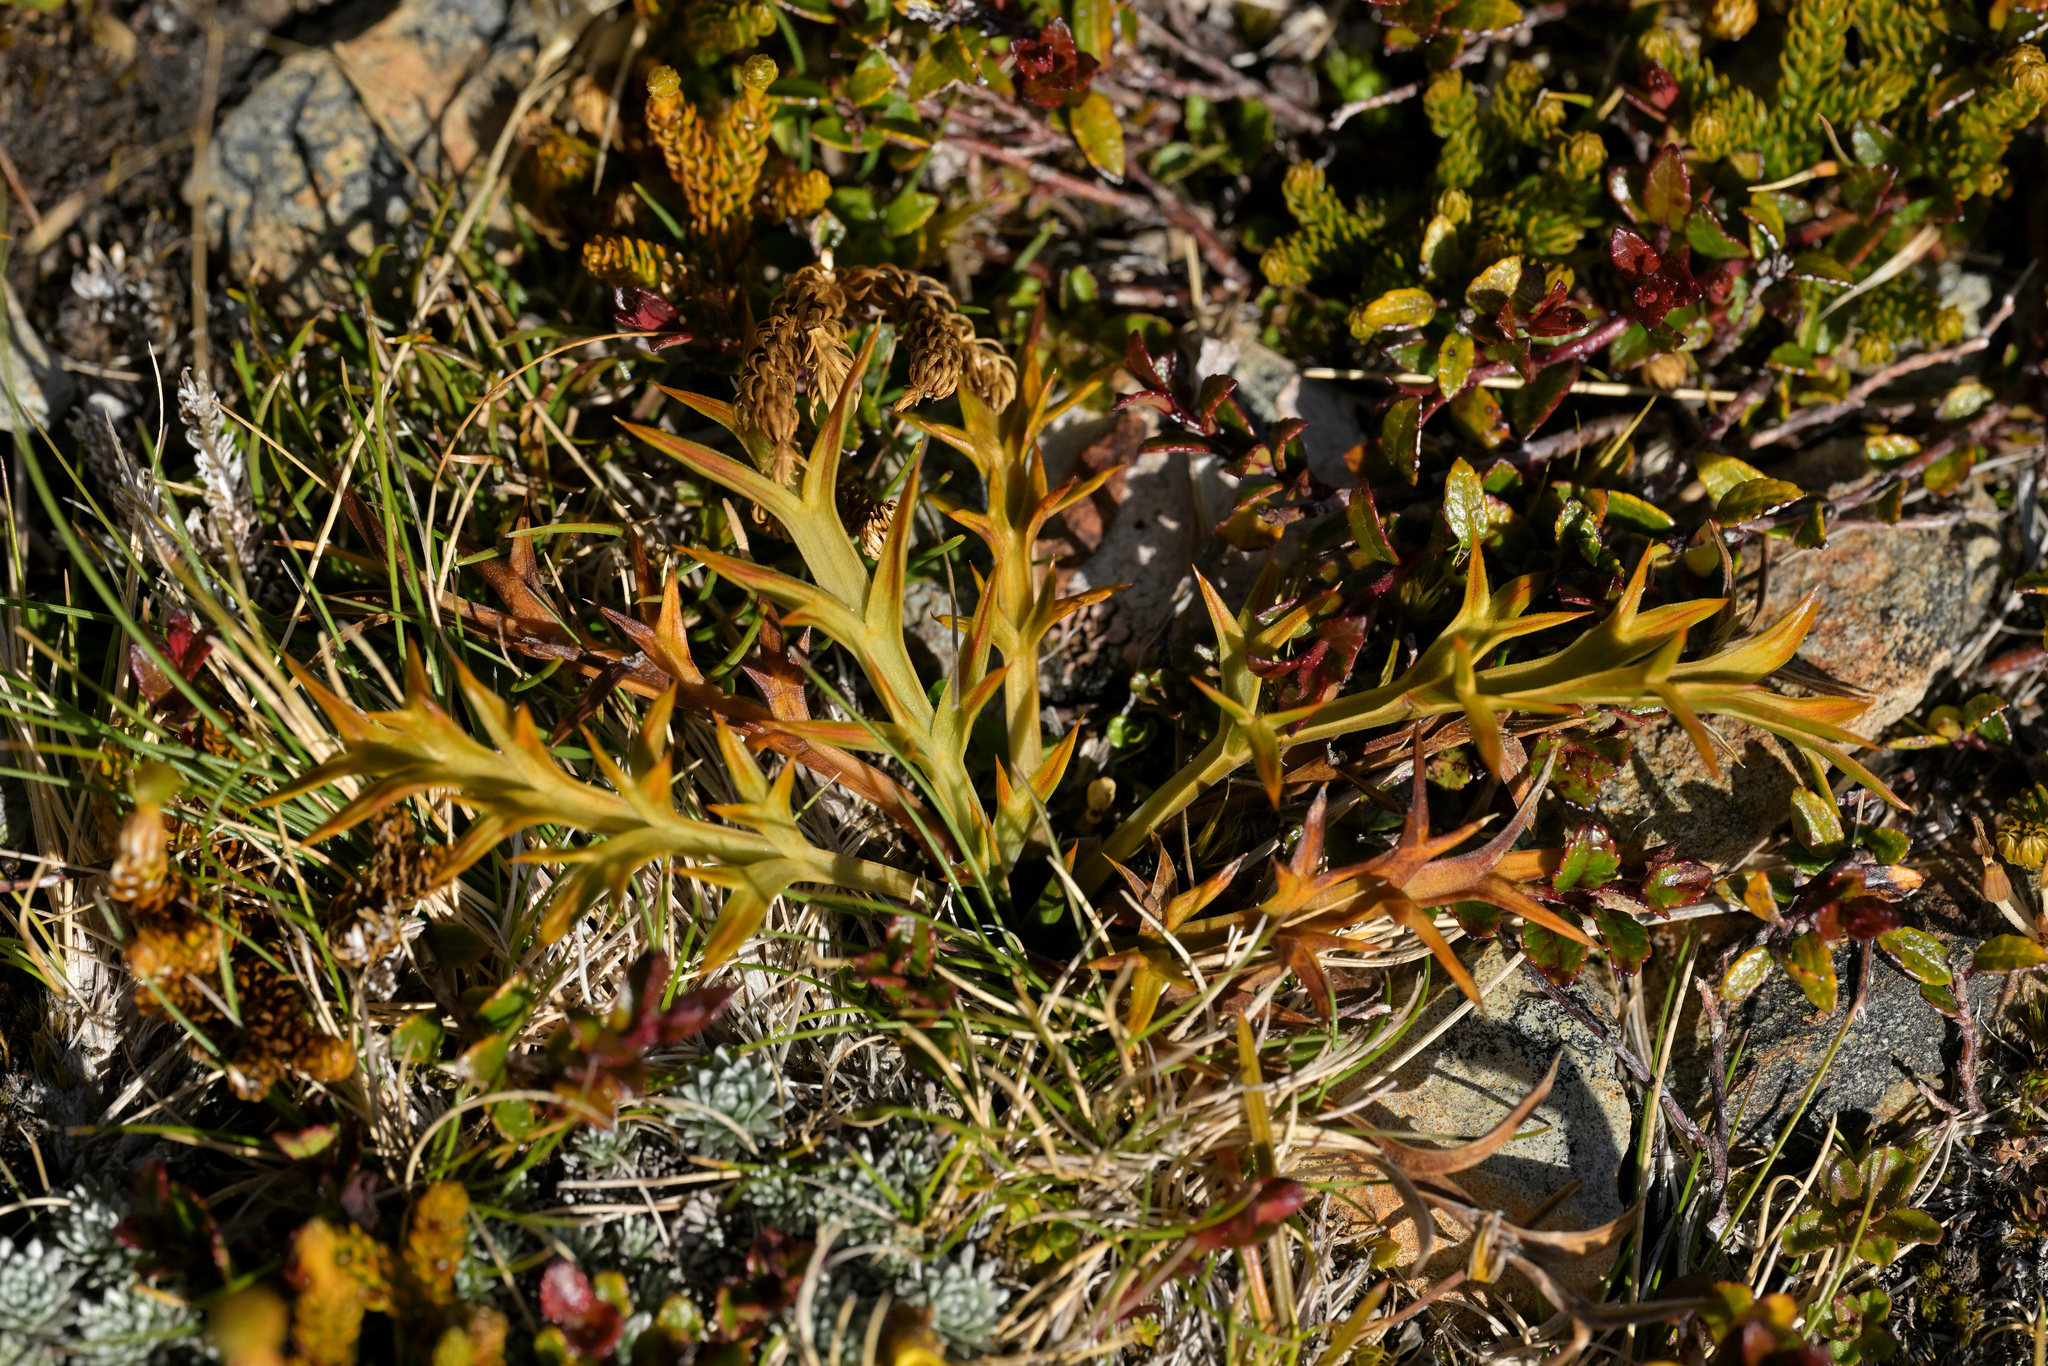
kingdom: Plantae
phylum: Tracheophyta
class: Magnoliopsida
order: Apiales
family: Apiaceae
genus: Aciphylla
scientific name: Aciphylla hookeri
